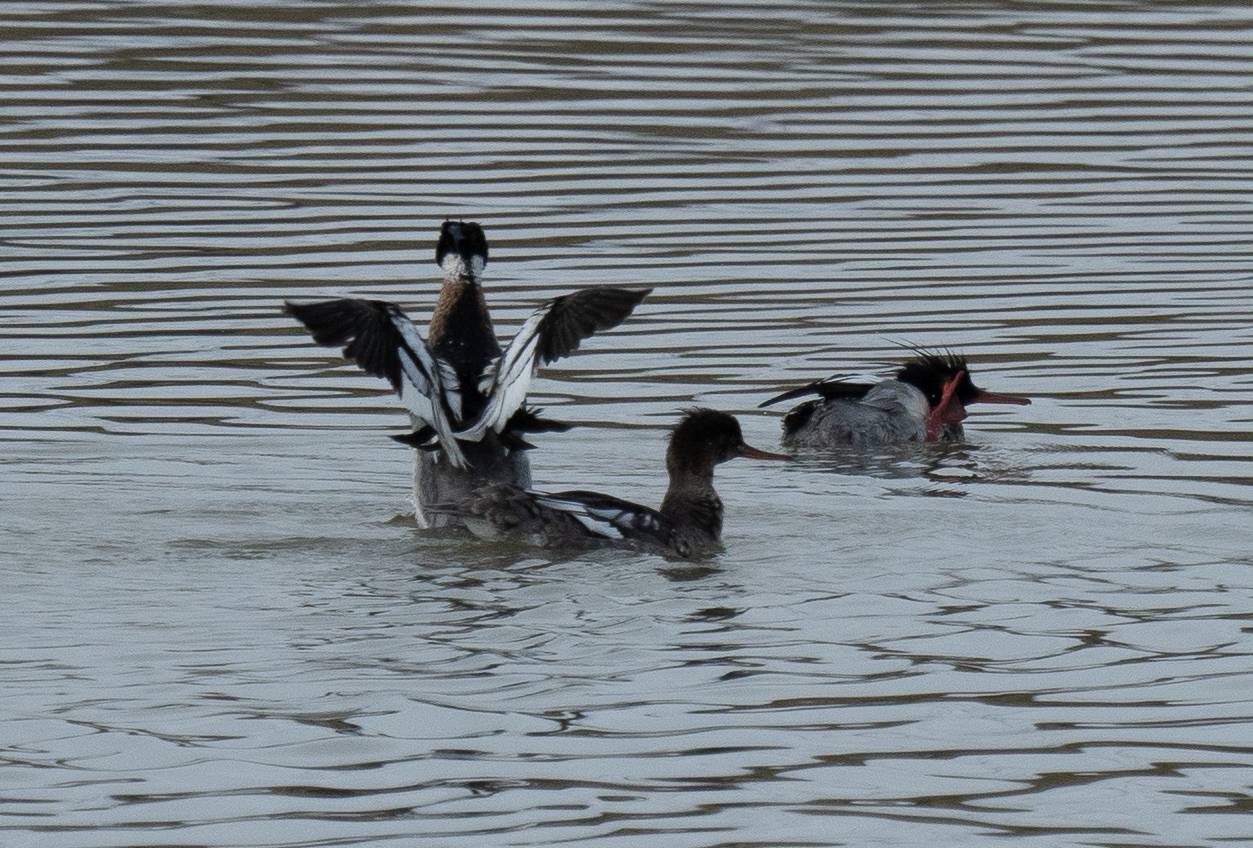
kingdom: Animalia
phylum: Chordata
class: Aves
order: Anseriformes
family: Anatidae
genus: Mergus
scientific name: Mergus serrator
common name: Red-breasted merganser
